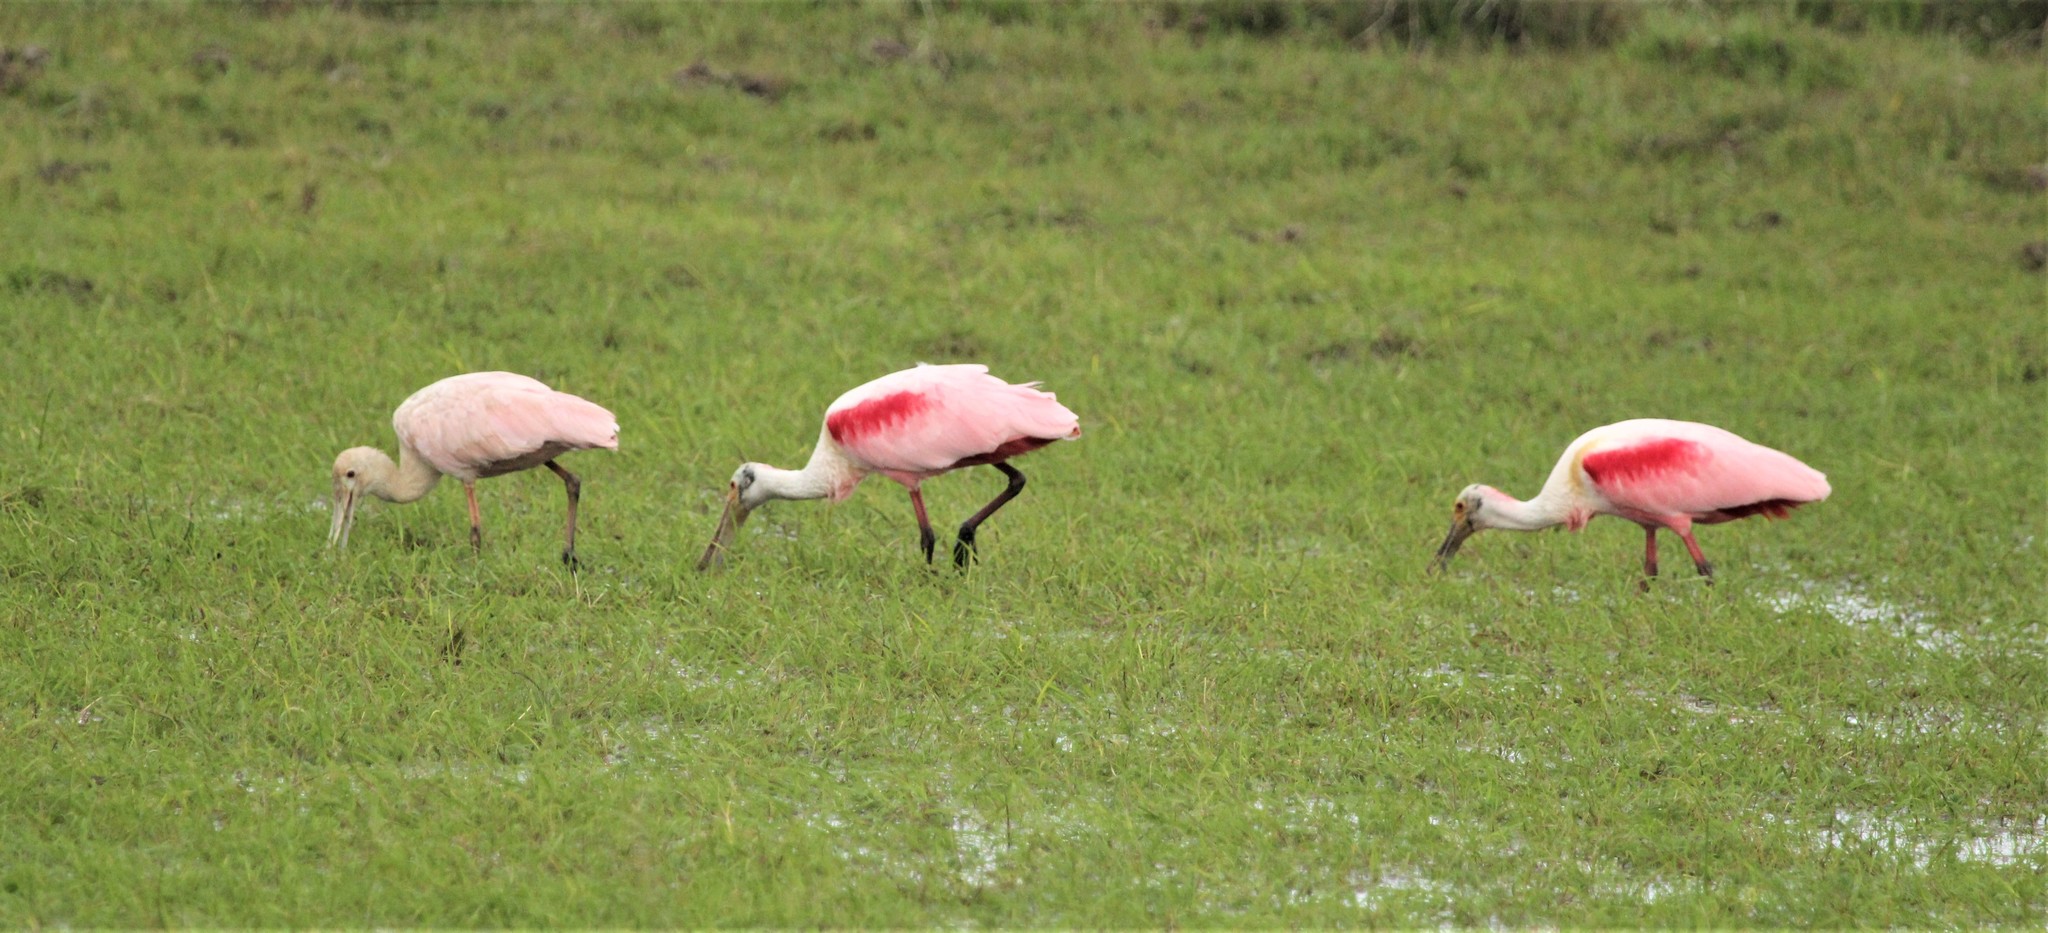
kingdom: Animalia
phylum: Chordata
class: Aves
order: Pelecaniformes
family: Threskiornithidae
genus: Platalea
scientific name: Platalea ajaja
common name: Roseate spoonbill
